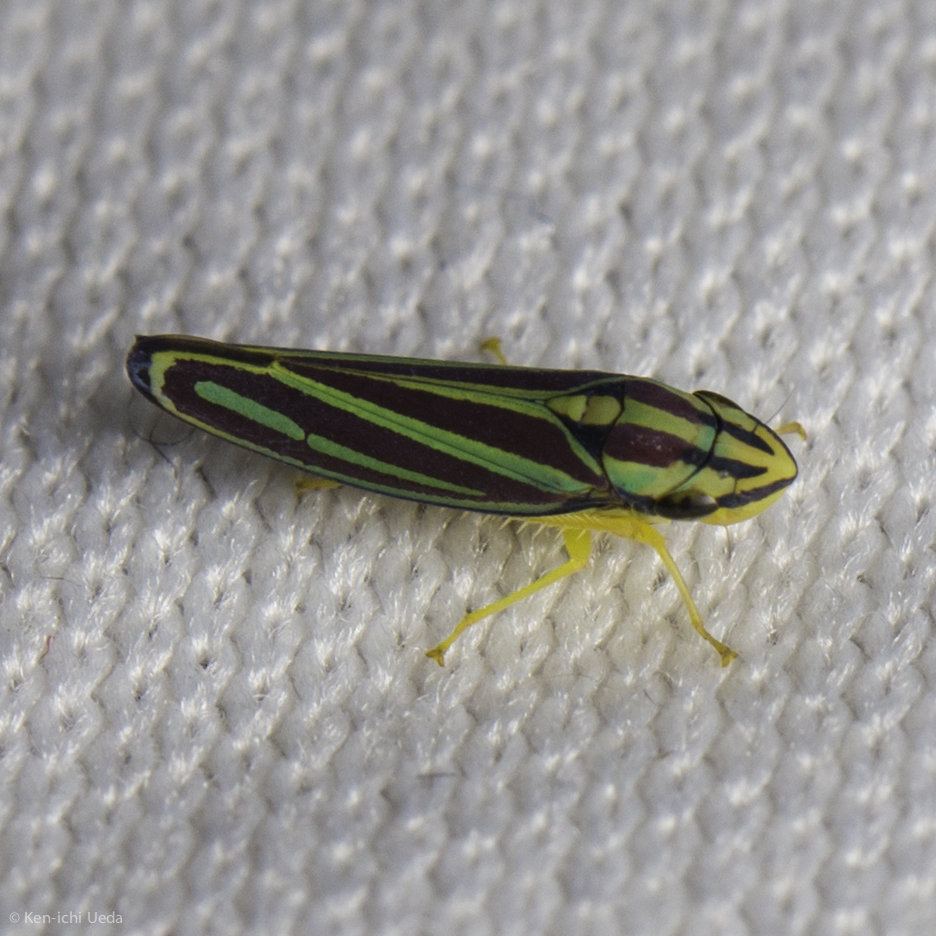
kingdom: Animalia
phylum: Arthropoda
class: Insecta
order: Hemiptera
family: Cicadellidae
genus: Graphocephala
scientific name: Graphocephala bivittata
